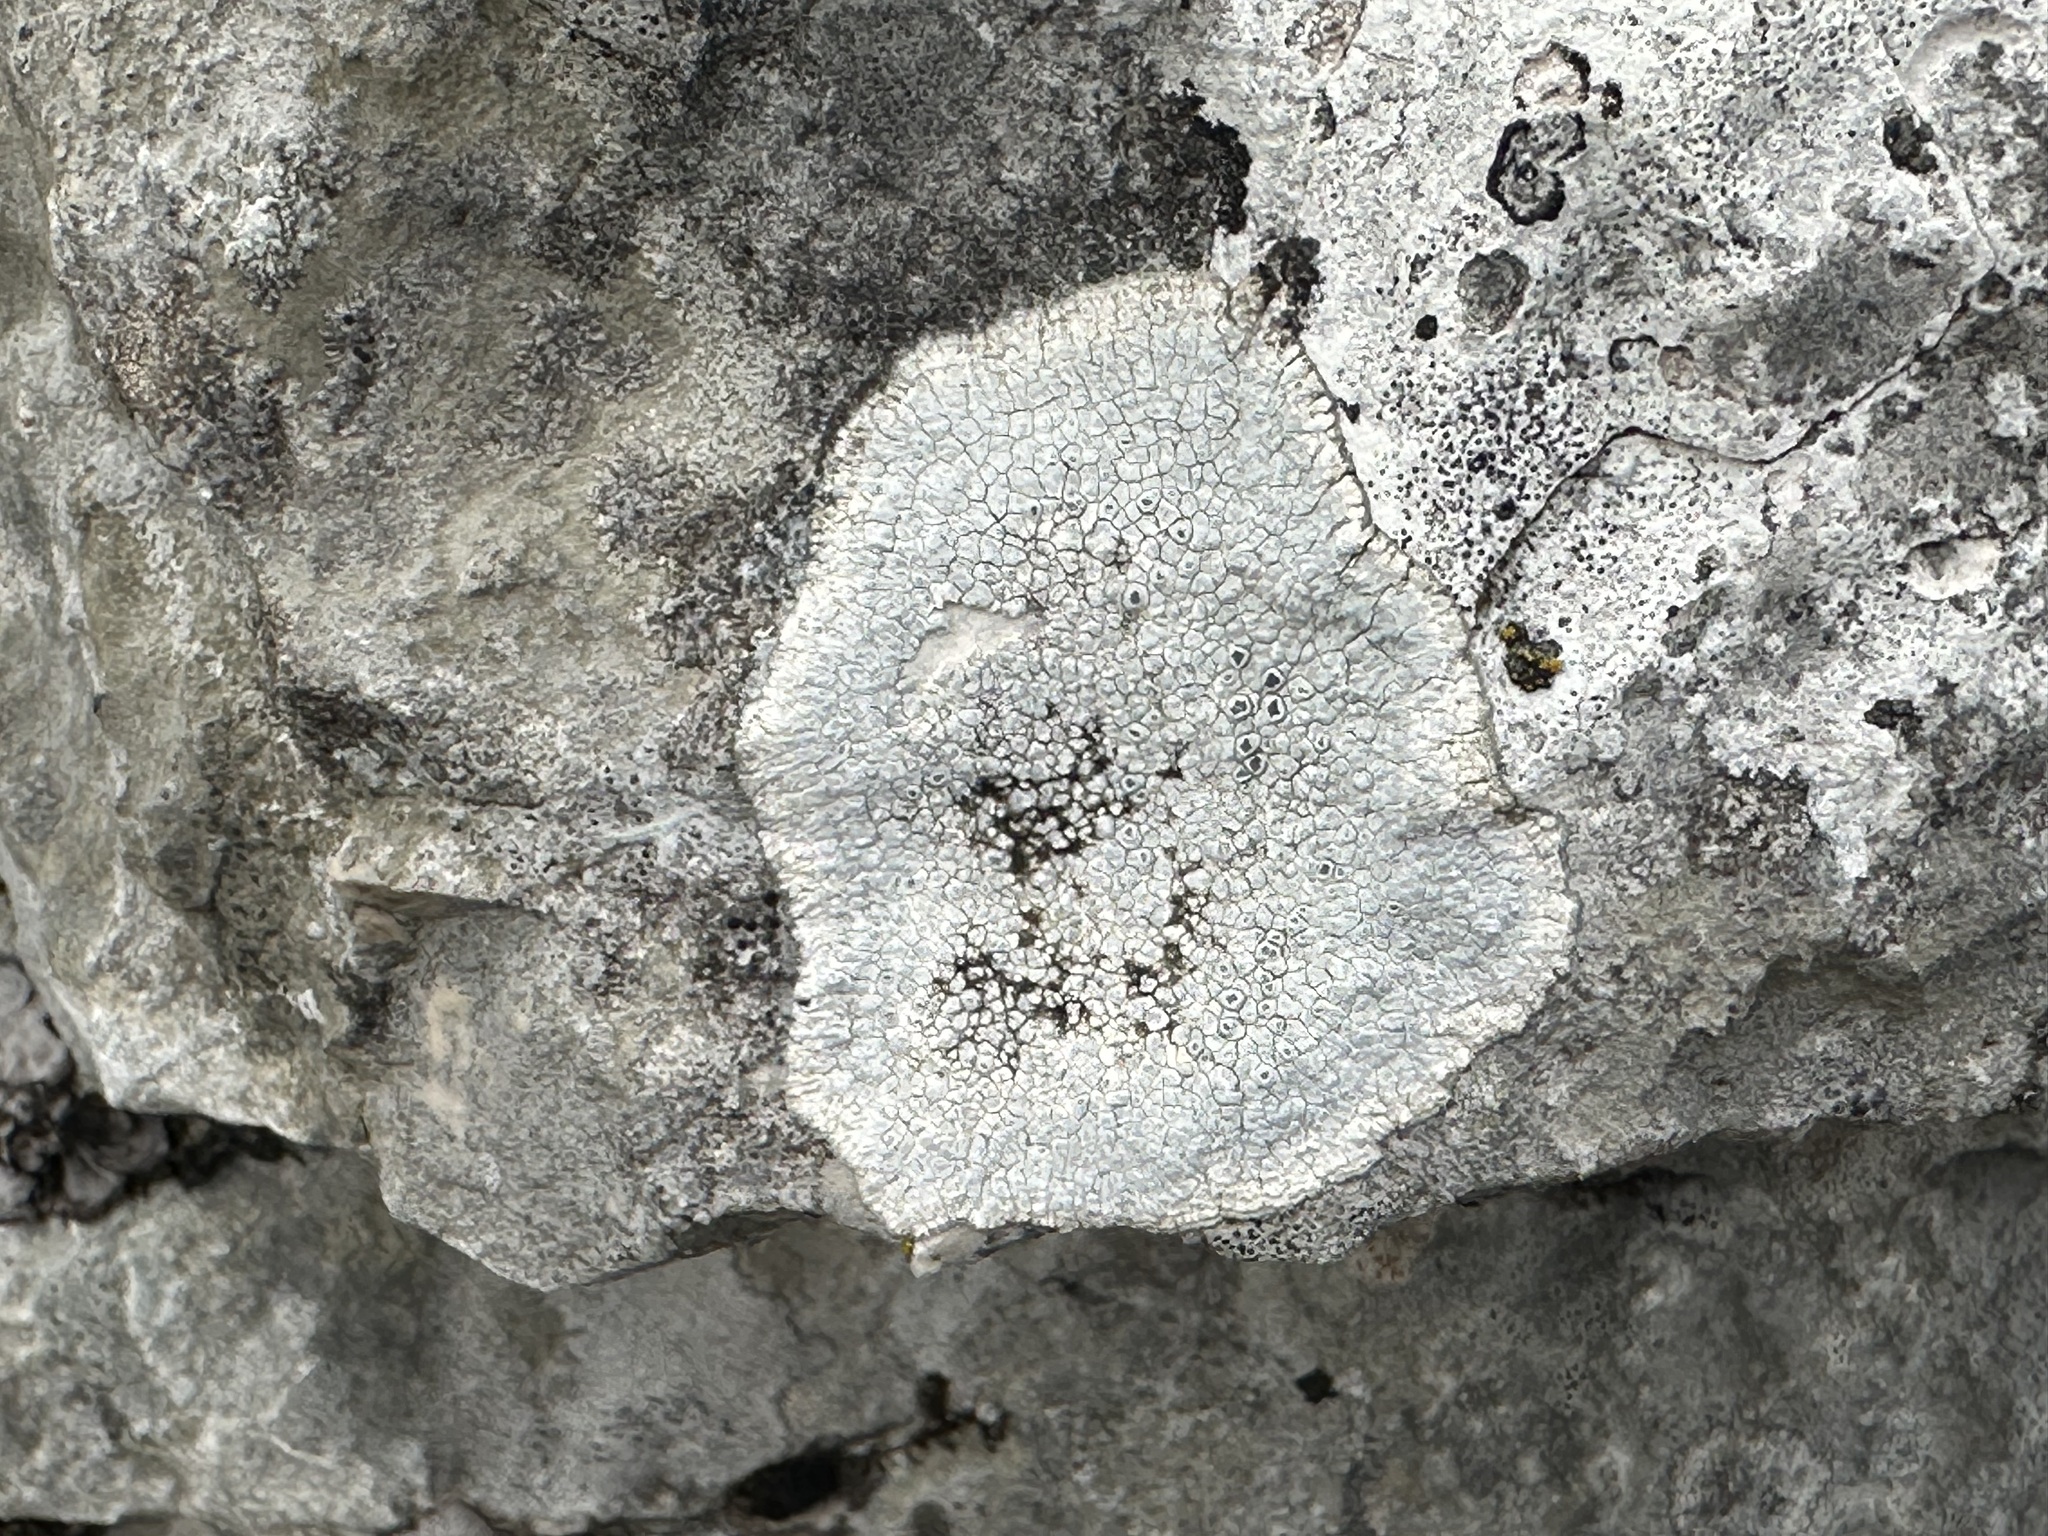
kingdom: Fungi
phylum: Ascomycota
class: Lecanoromycetes
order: Pertusariales
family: Megasporaceae
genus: Circinaria
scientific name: Circinaria calcarea
